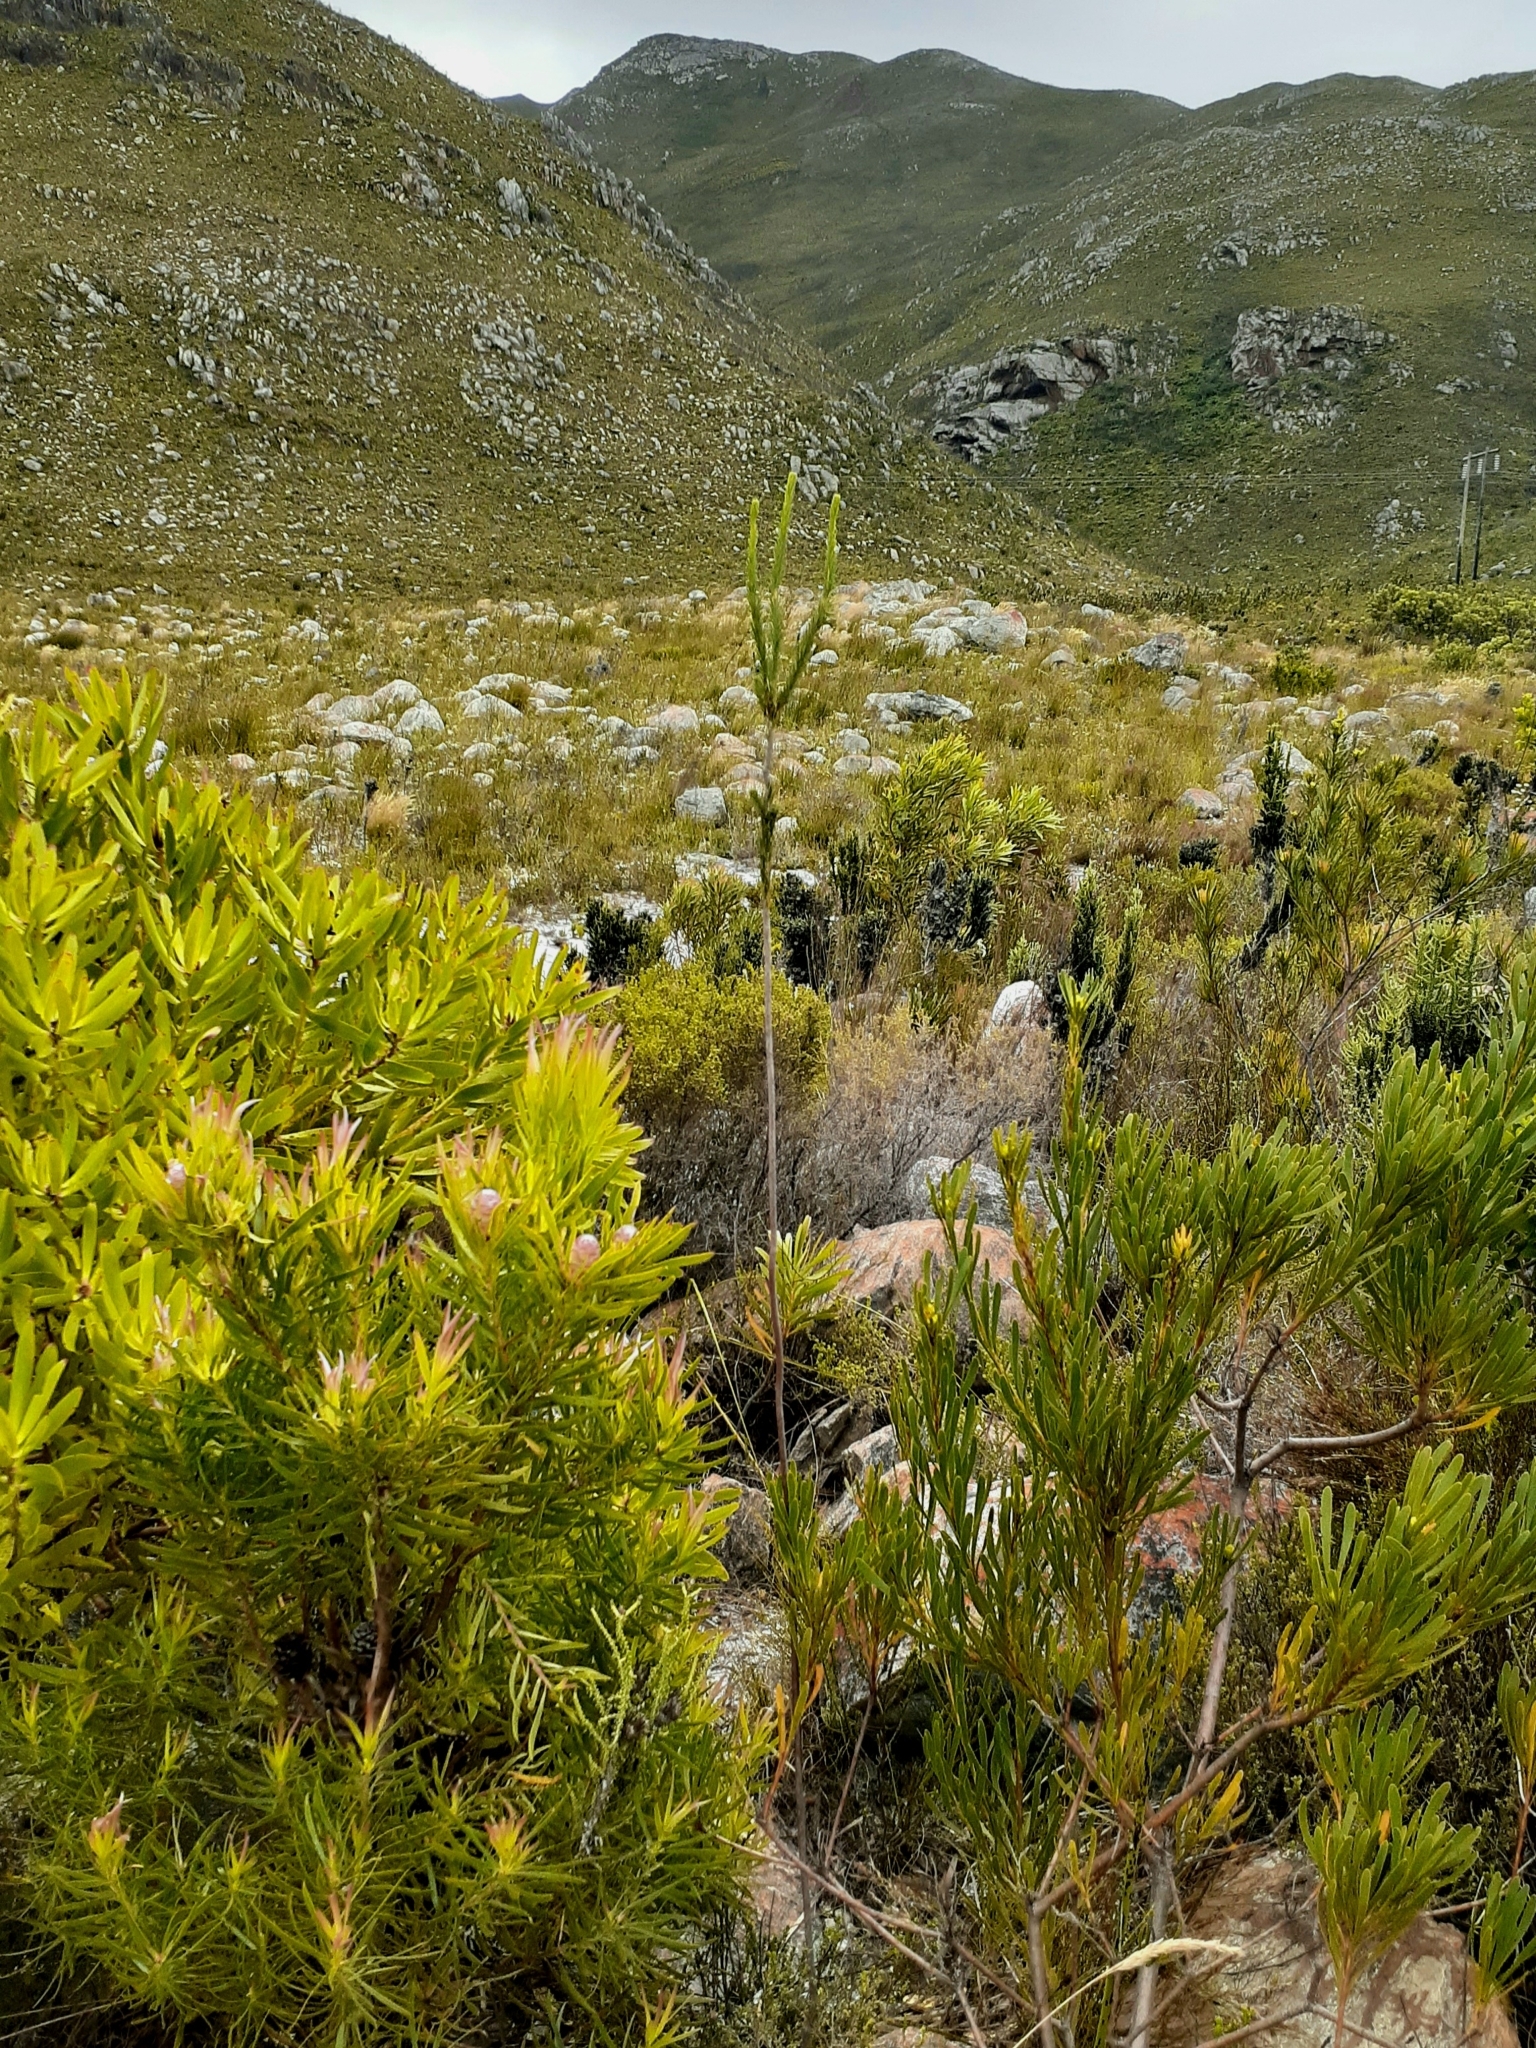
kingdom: Plantae
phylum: Tracheophyta
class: Magnoliopsida
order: Ericales
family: Ericaceae
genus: Erica
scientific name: Erica fascicularis
